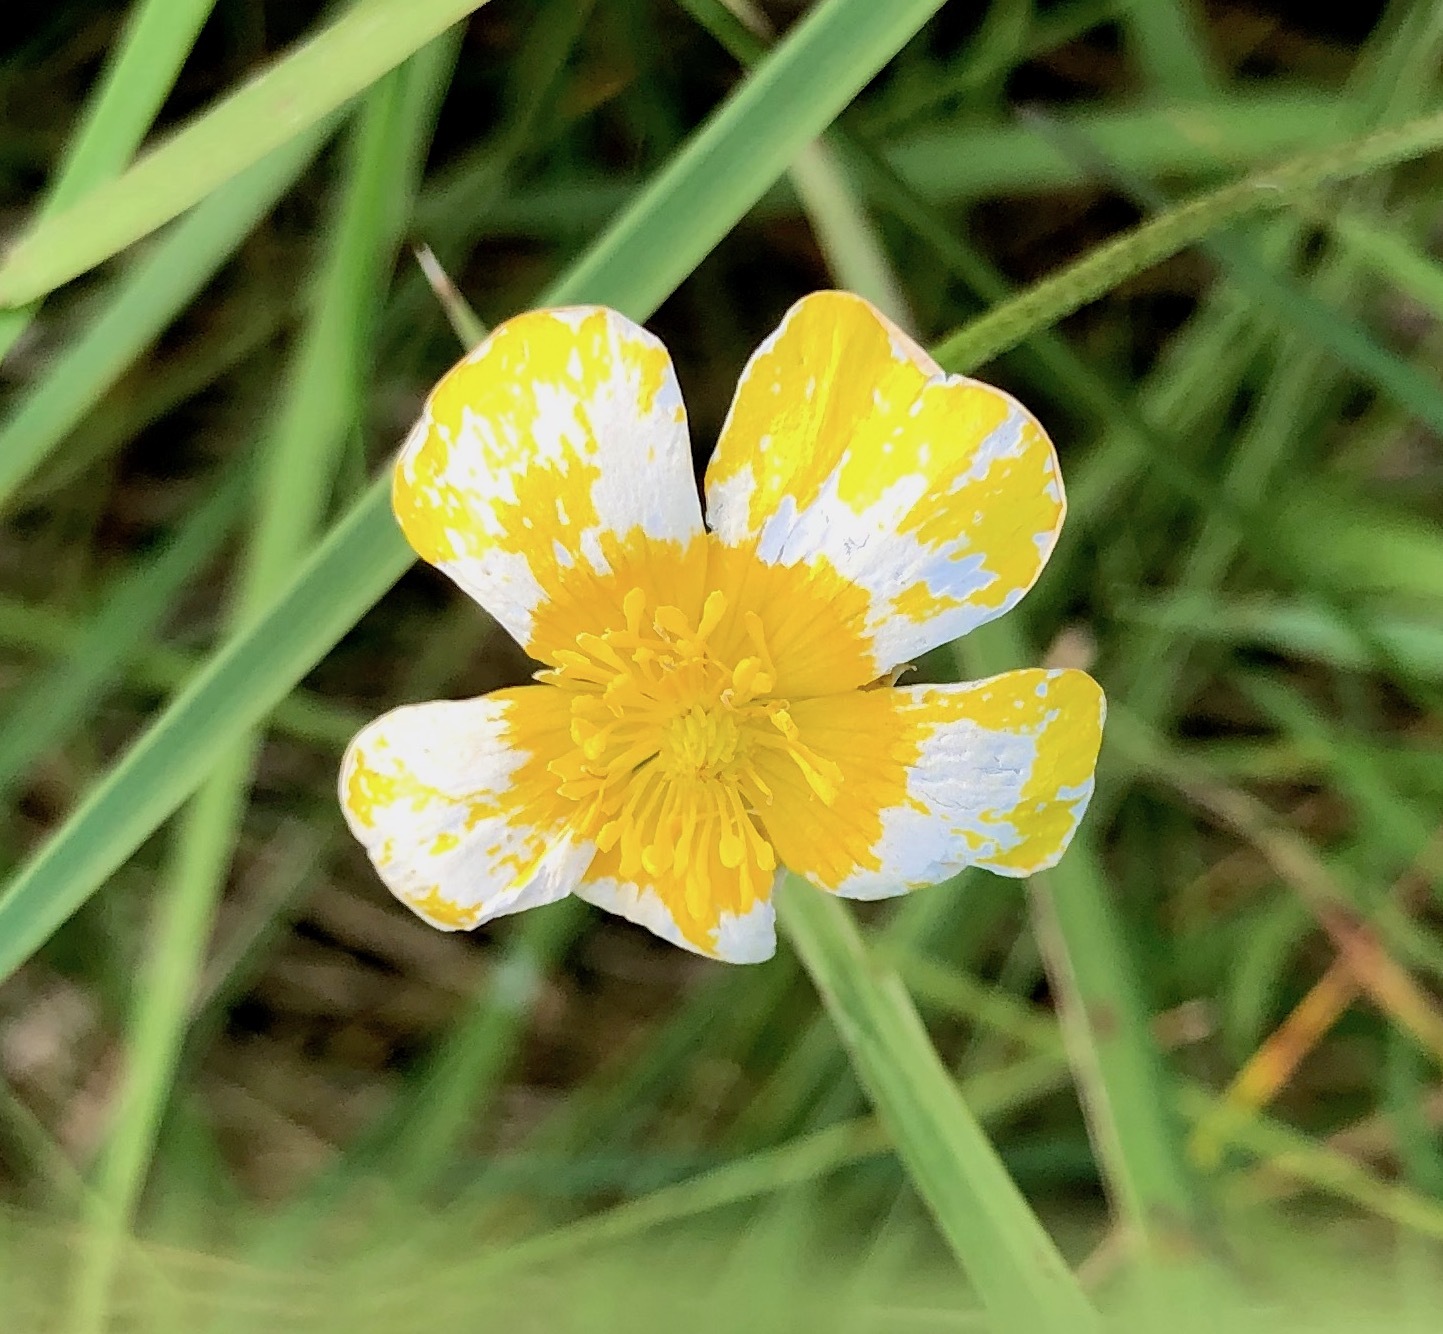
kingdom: Plantae
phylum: Tracheophyta
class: Magnoliopsida
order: Ranunculales
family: Ranunculaceae
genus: Ranunculus
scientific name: Ranunculus acris
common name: Meadow buttercup
